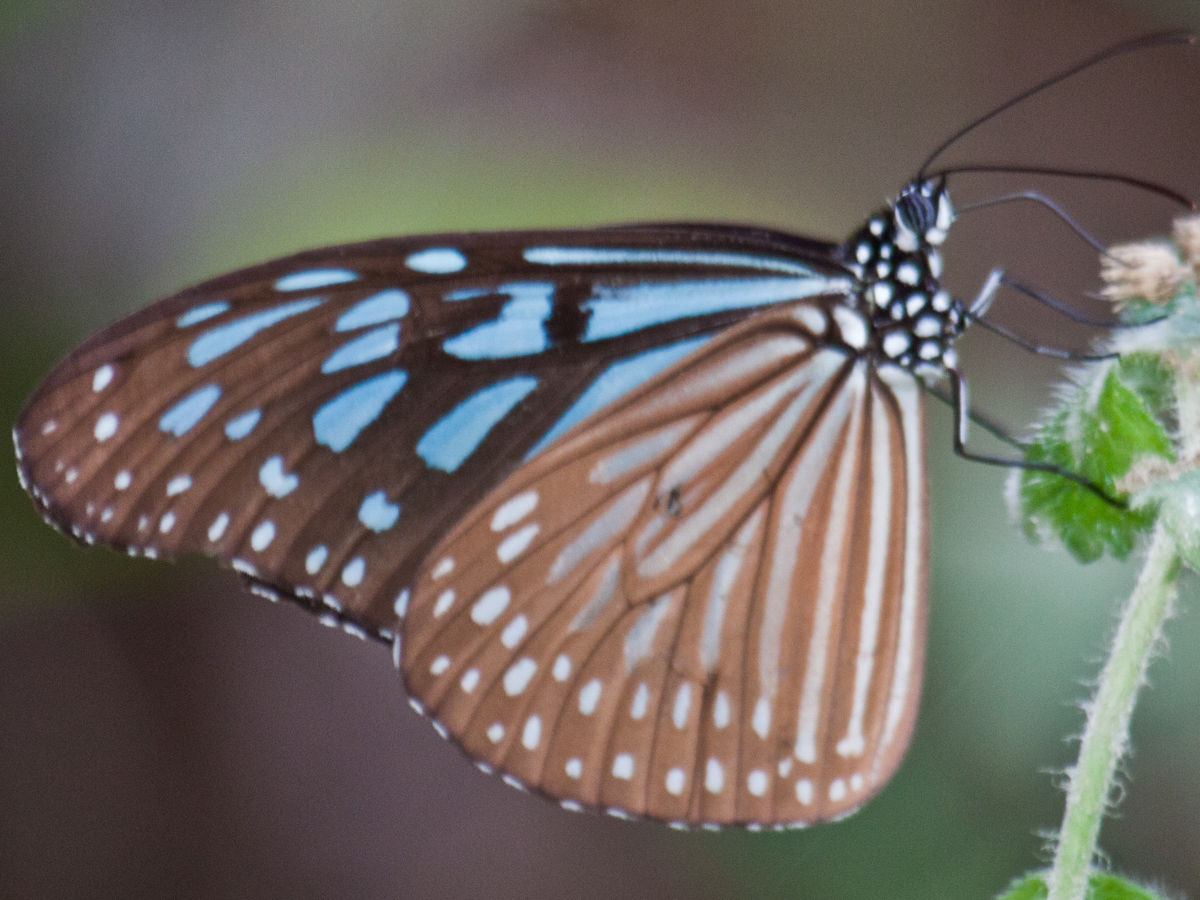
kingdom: Animalia
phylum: Arthropoda
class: Insecta
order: Lepidoptera
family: Nymphalidae
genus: Ideopsis
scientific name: Ideopsis vulgaris
